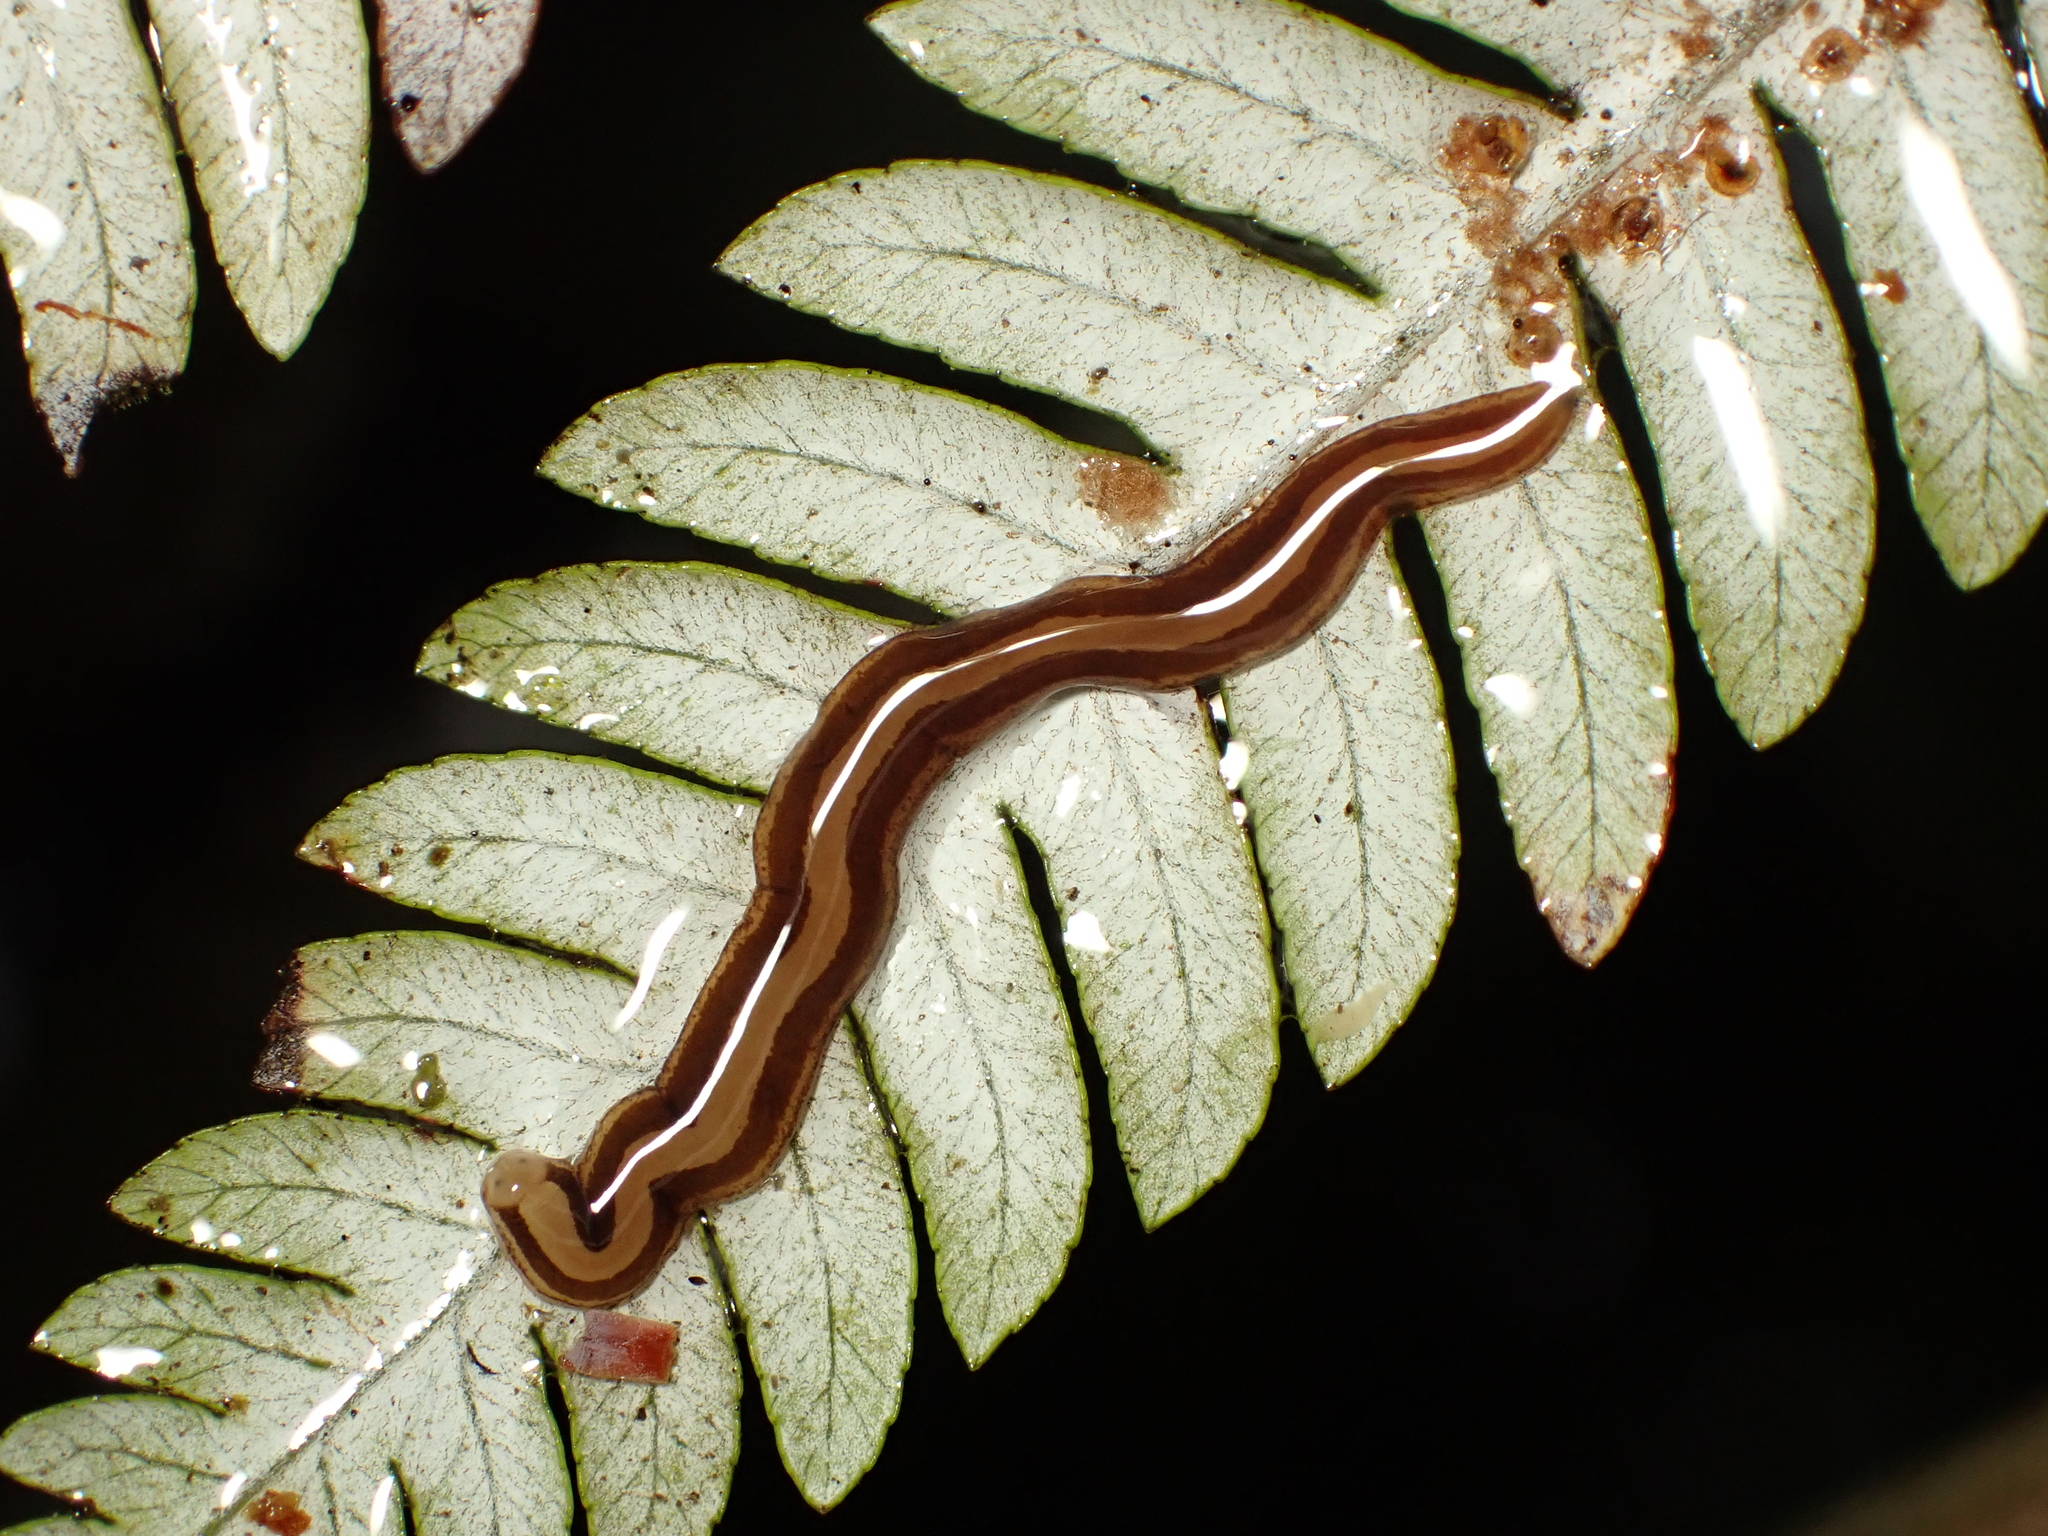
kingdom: Animalia
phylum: Nemertea
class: Hoplonemertea
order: Monostilifera
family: Acteonemertidae
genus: Antiponemertes
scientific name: Antiponemertes novaezealandiae
